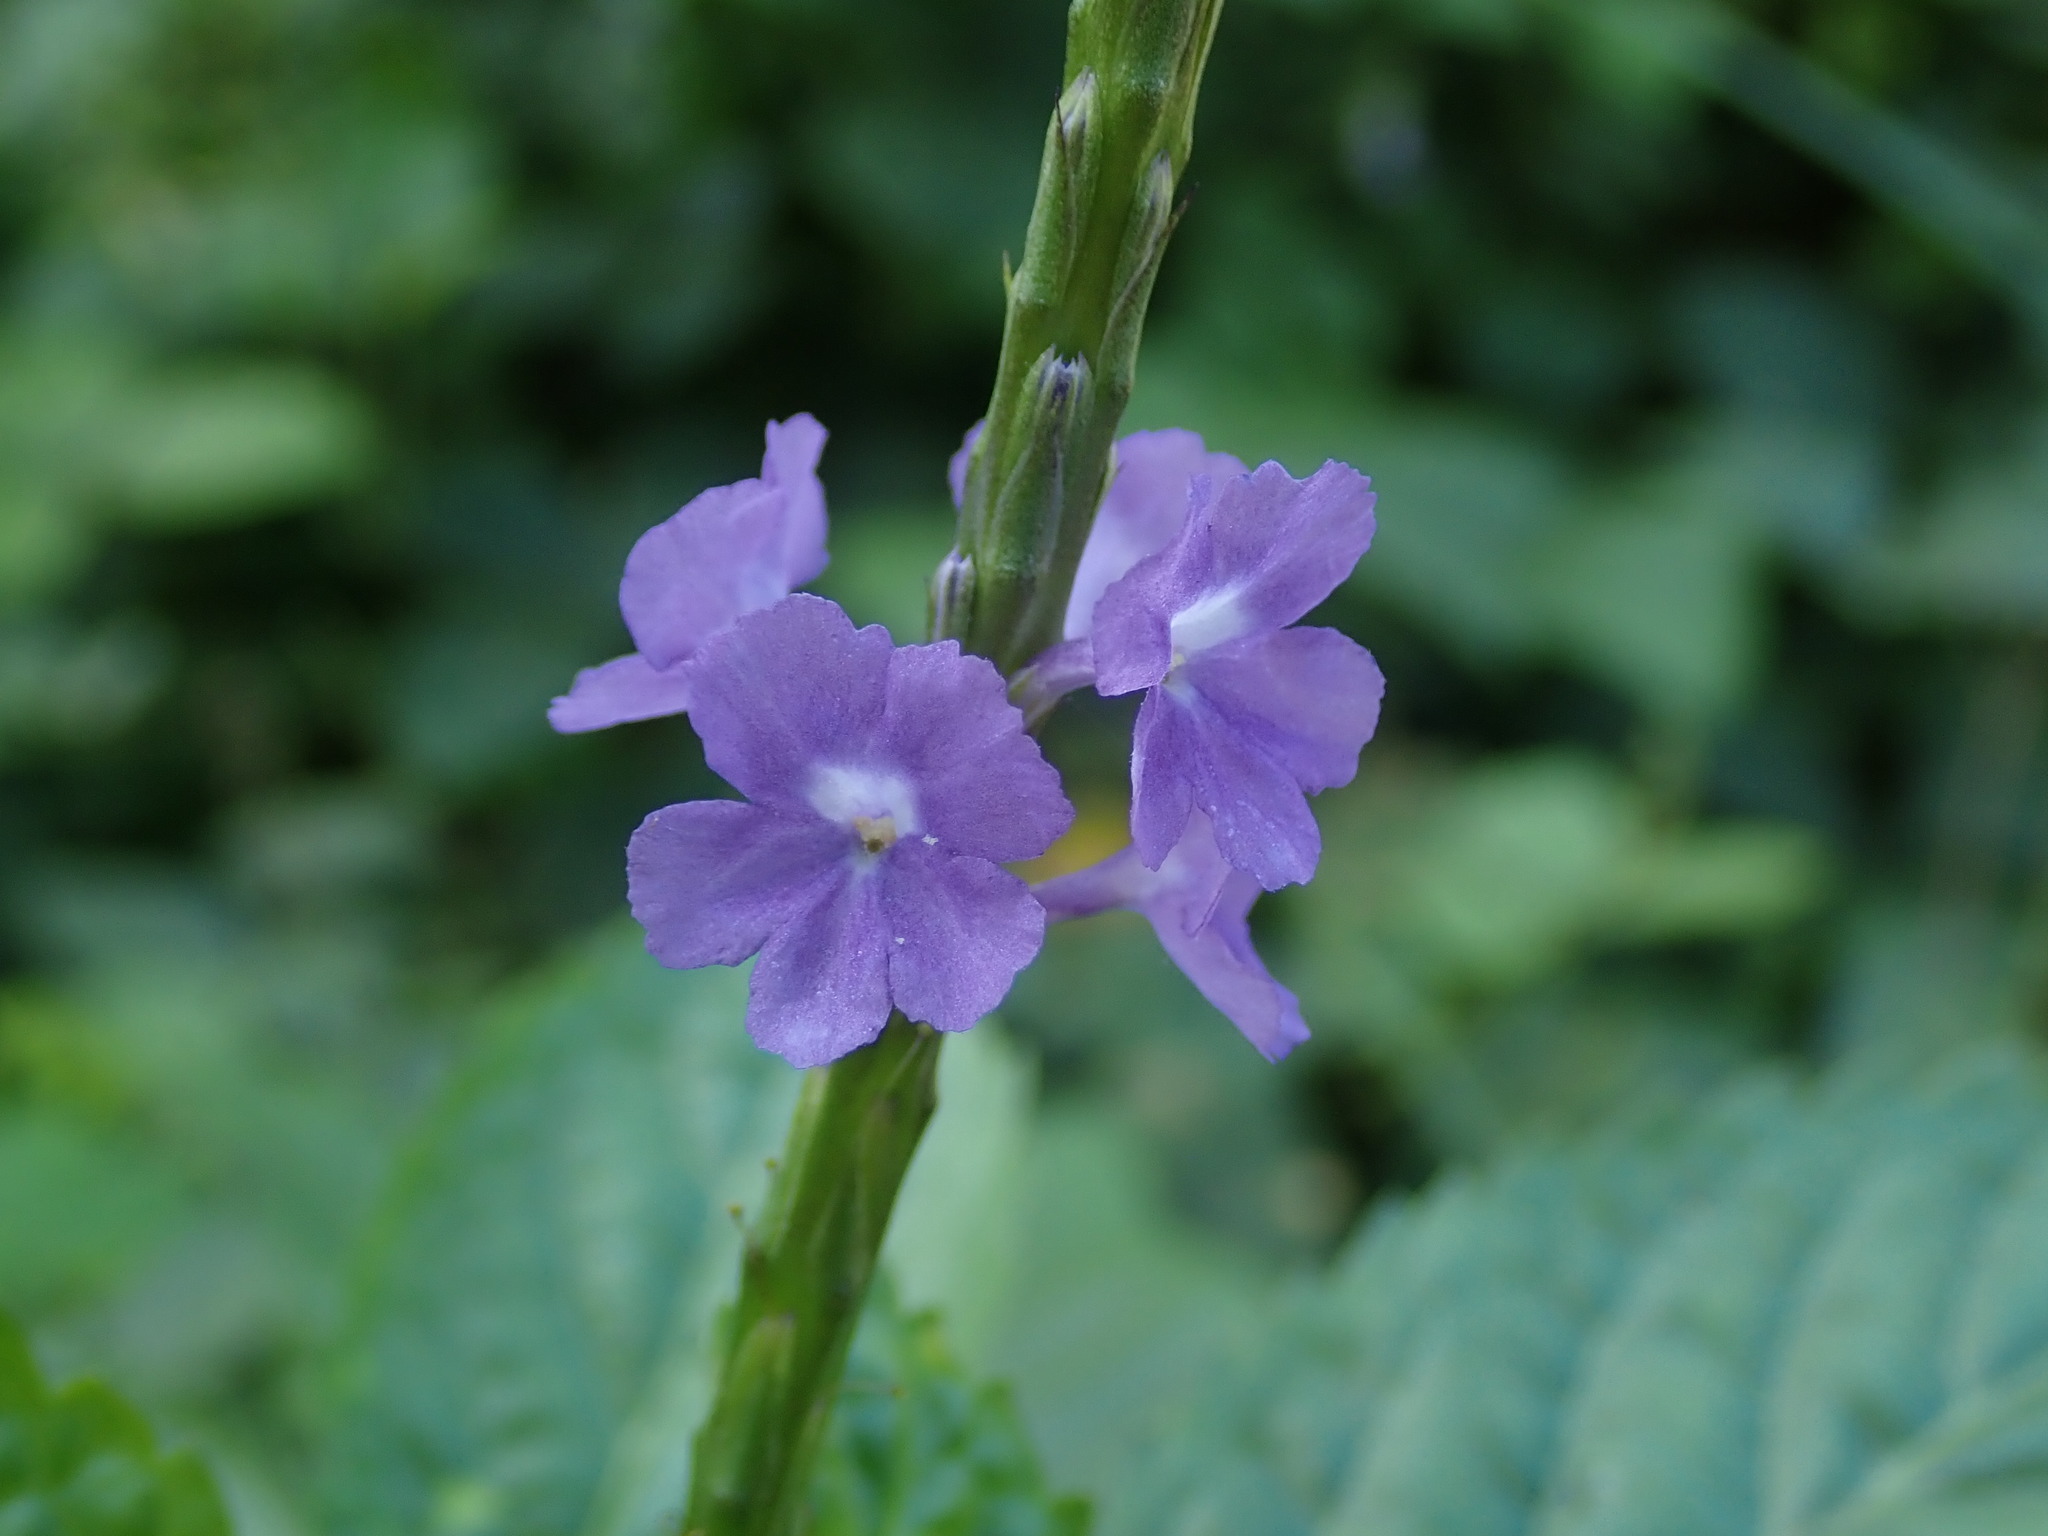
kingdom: Plantae
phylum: Tracheophyta
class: Magnoliopsida
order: Lamiales
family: Verbenaceae
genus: Stachytarpheta
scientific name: Stachytarpheta jamaicensis
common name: Light-blue snakeweed
